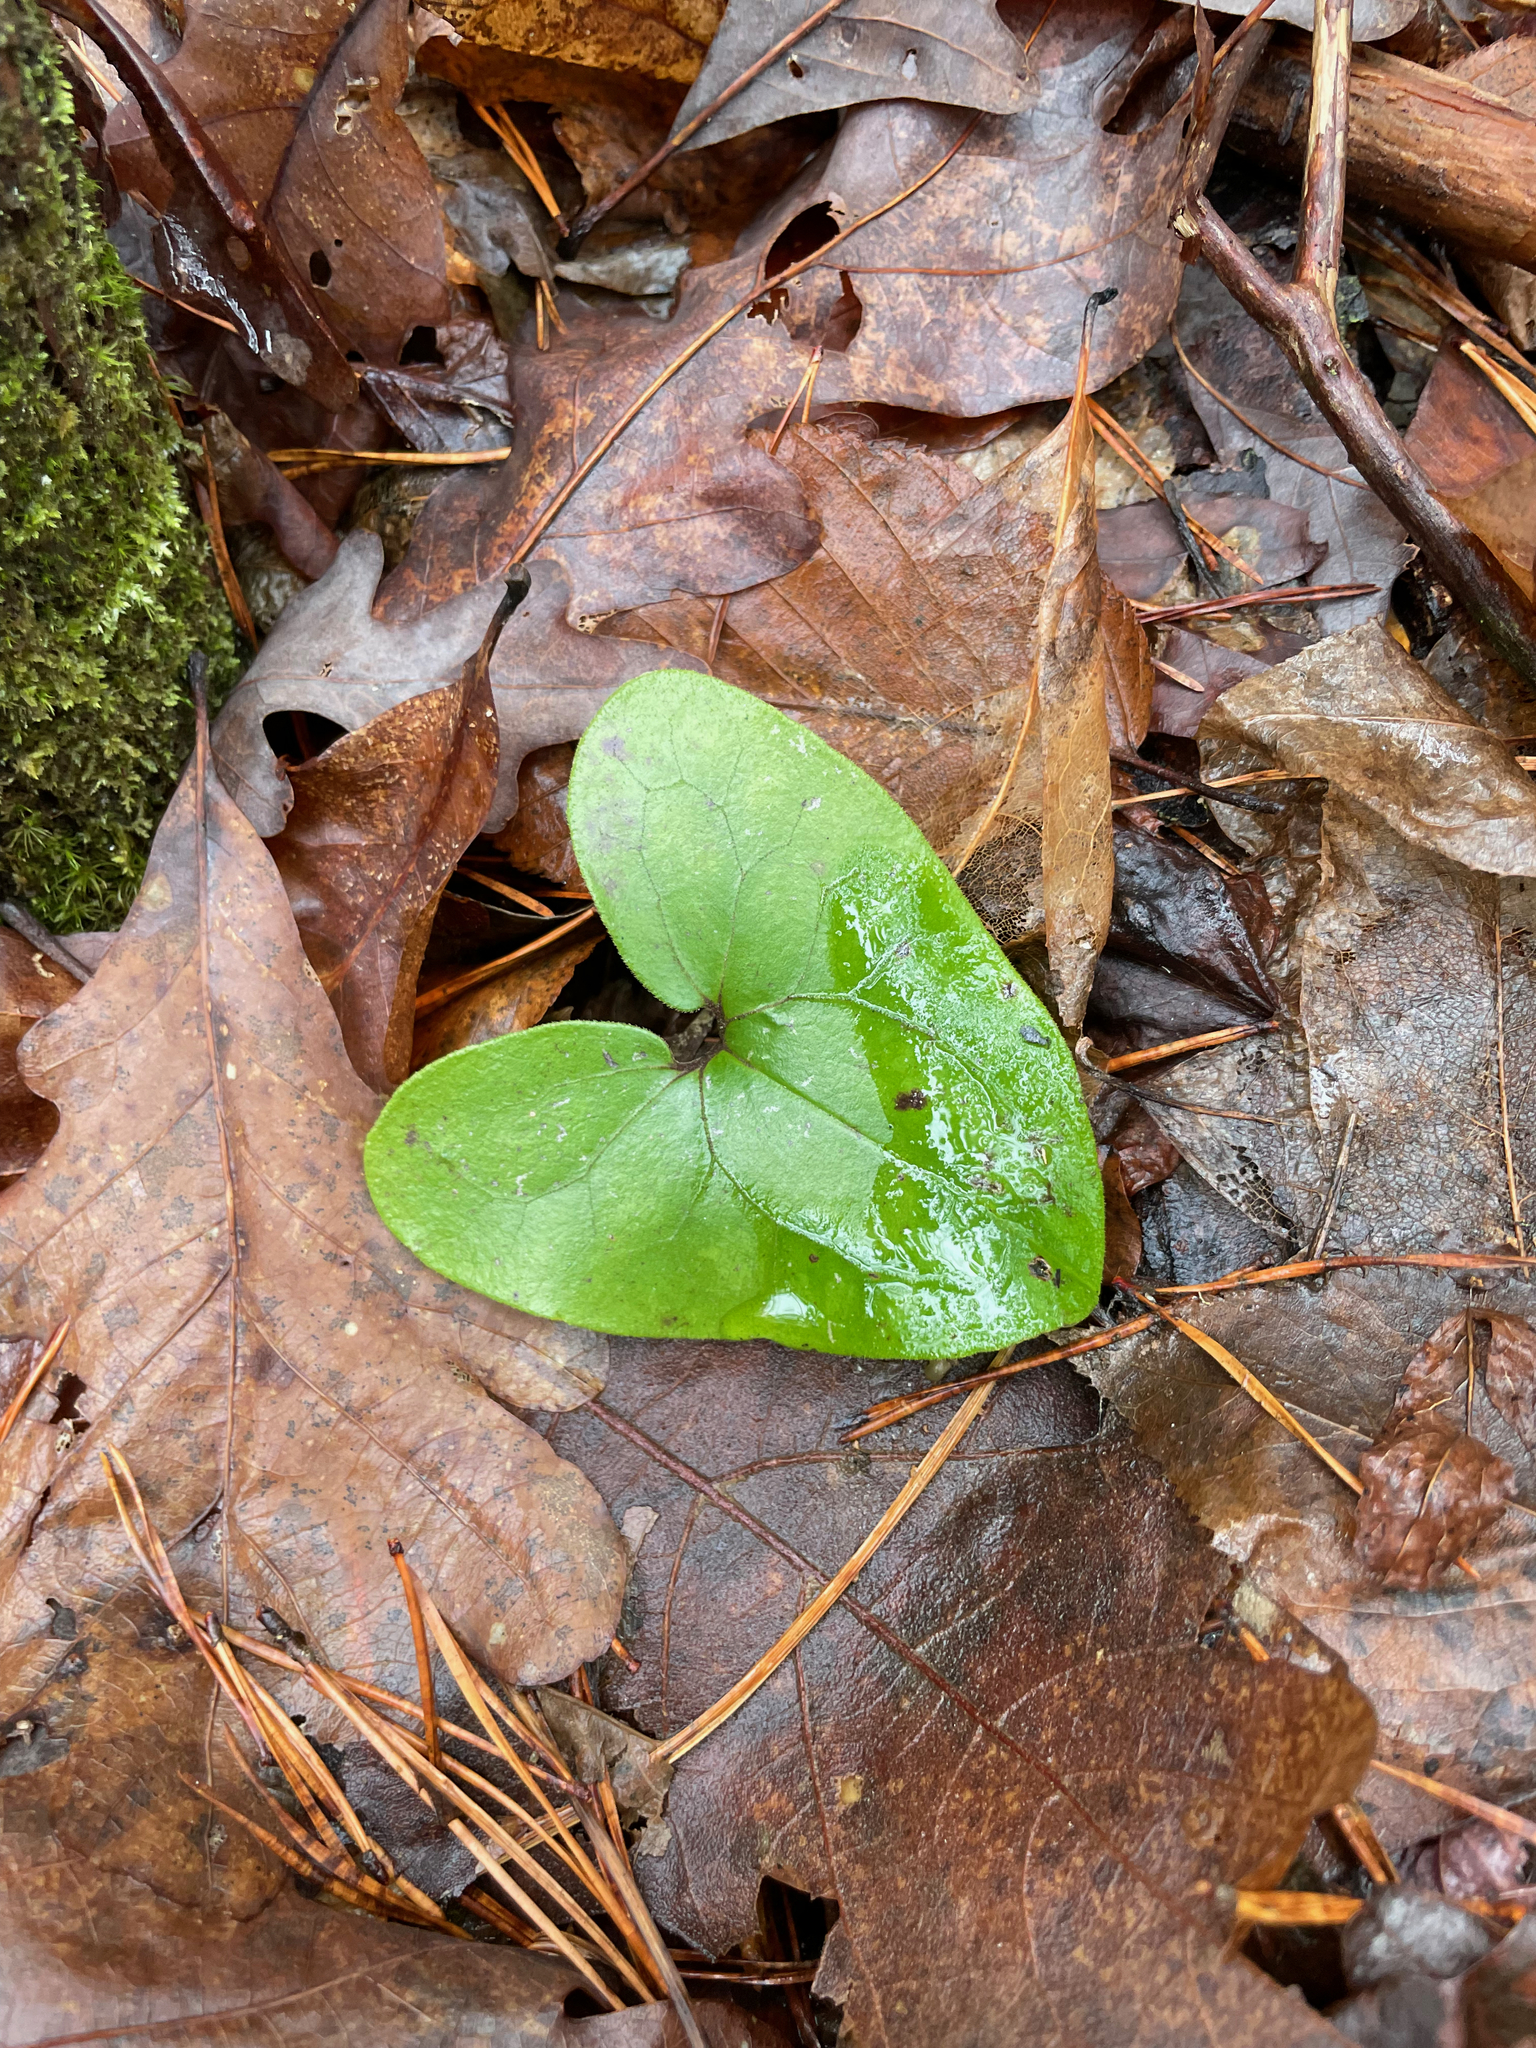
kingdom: Plantae
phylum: Tracheophyta
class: Magnoliopsida
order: Piperales
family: Aristolochiaceae
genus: Hexastylis
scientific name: Hexastylis arifolia
